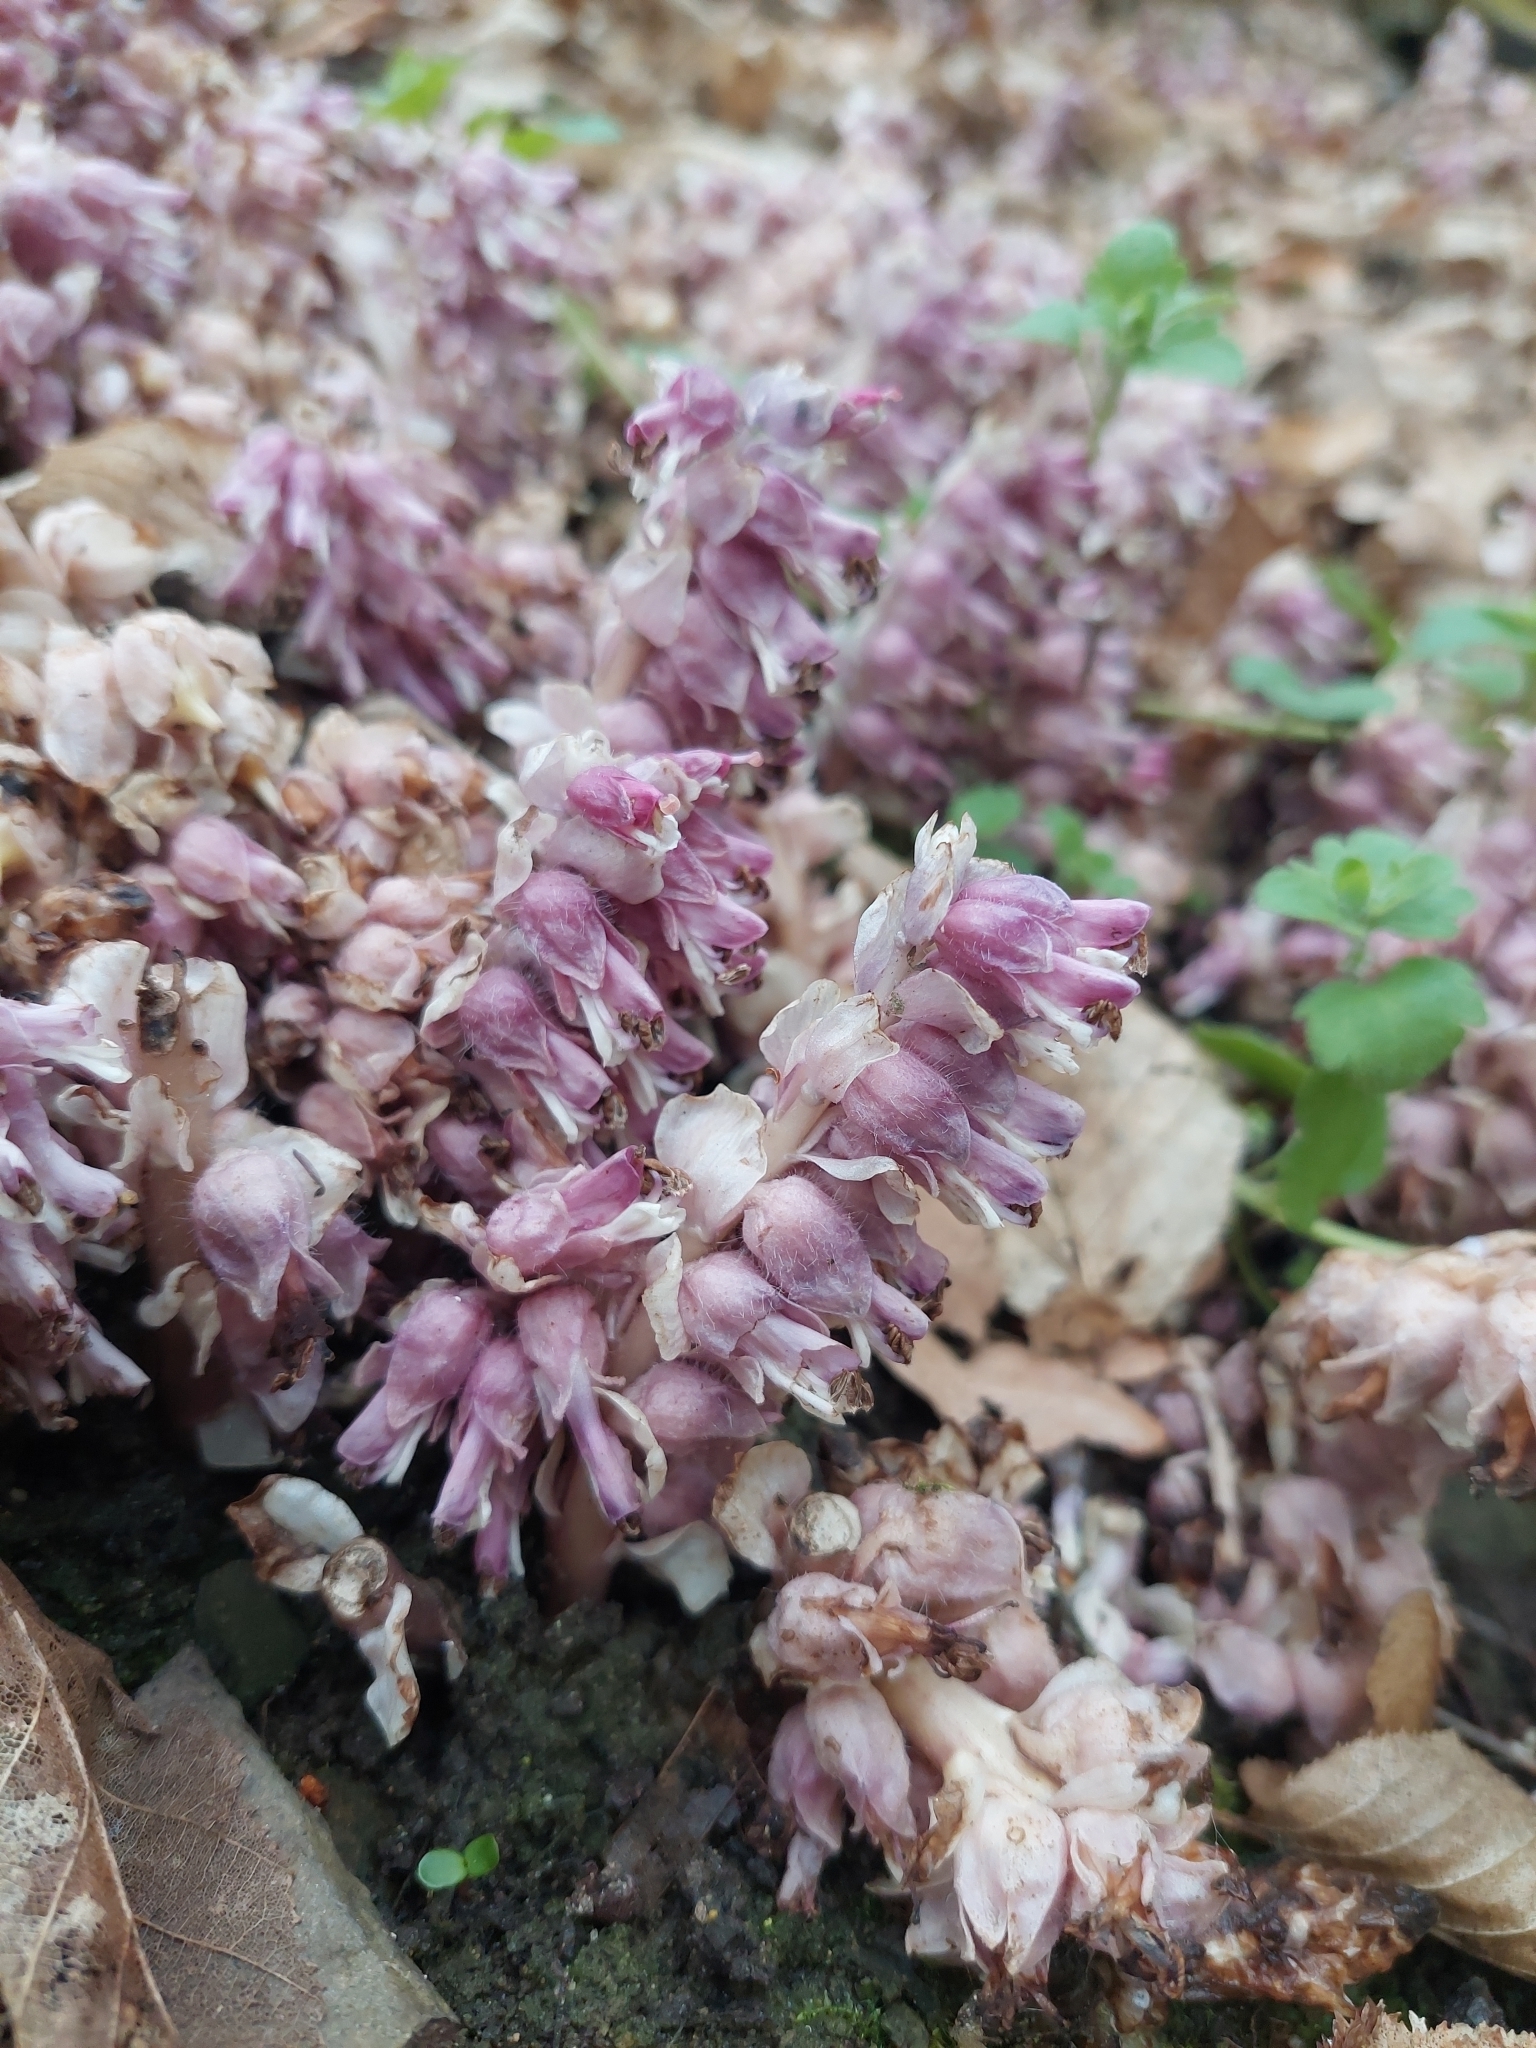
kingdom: Plantae
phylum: Tracheophyta
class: Magnoliopsida
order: Lamiales
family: Orobanchaceae
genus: Lathraea
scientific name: Lathraea squamaria
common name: Toothwort
